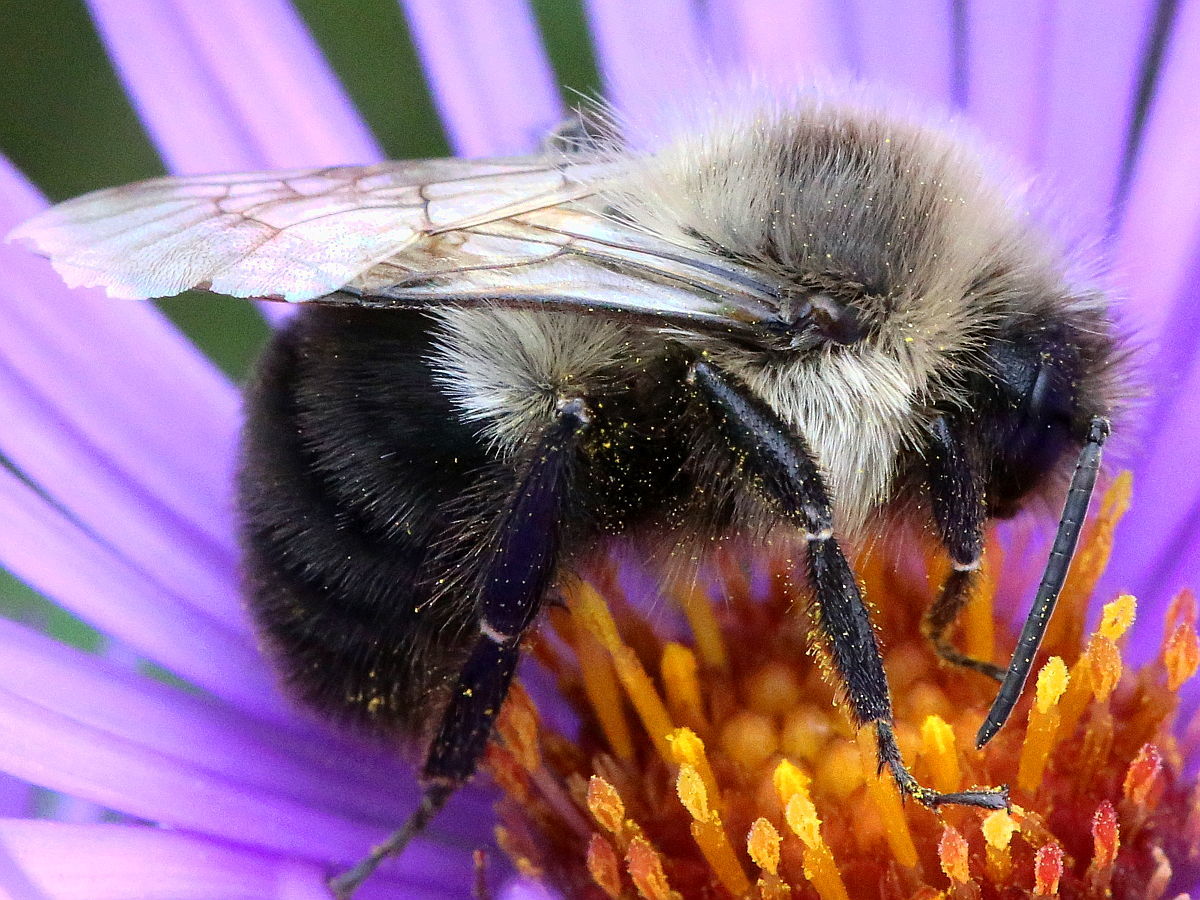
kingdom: Animalia
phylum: Arthropoda
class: Insecta
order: Hymenoptera
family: Apidae
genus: Bombus
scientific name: Bombus impatiens
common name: Common eastern bumble bee
